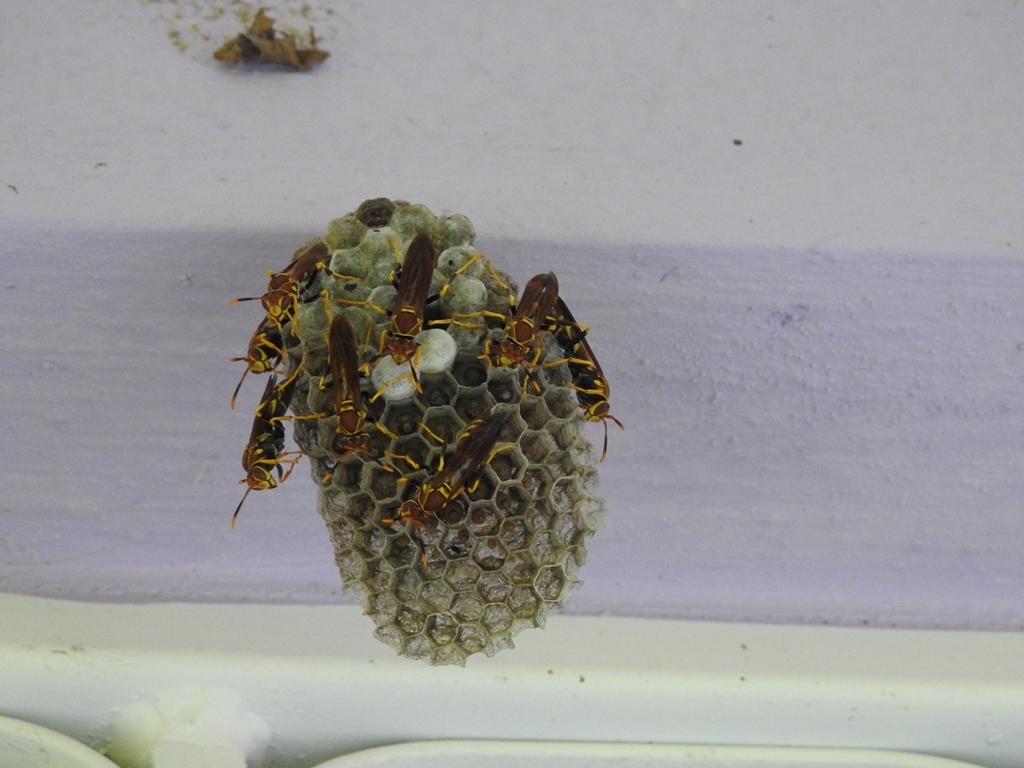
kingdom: Animalia
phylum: Arthropoda
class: Insecta
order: Hymenoptera
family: Eumenidae
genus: Polistes
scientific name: Polistes instabilis
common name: Unstable paper wasp
